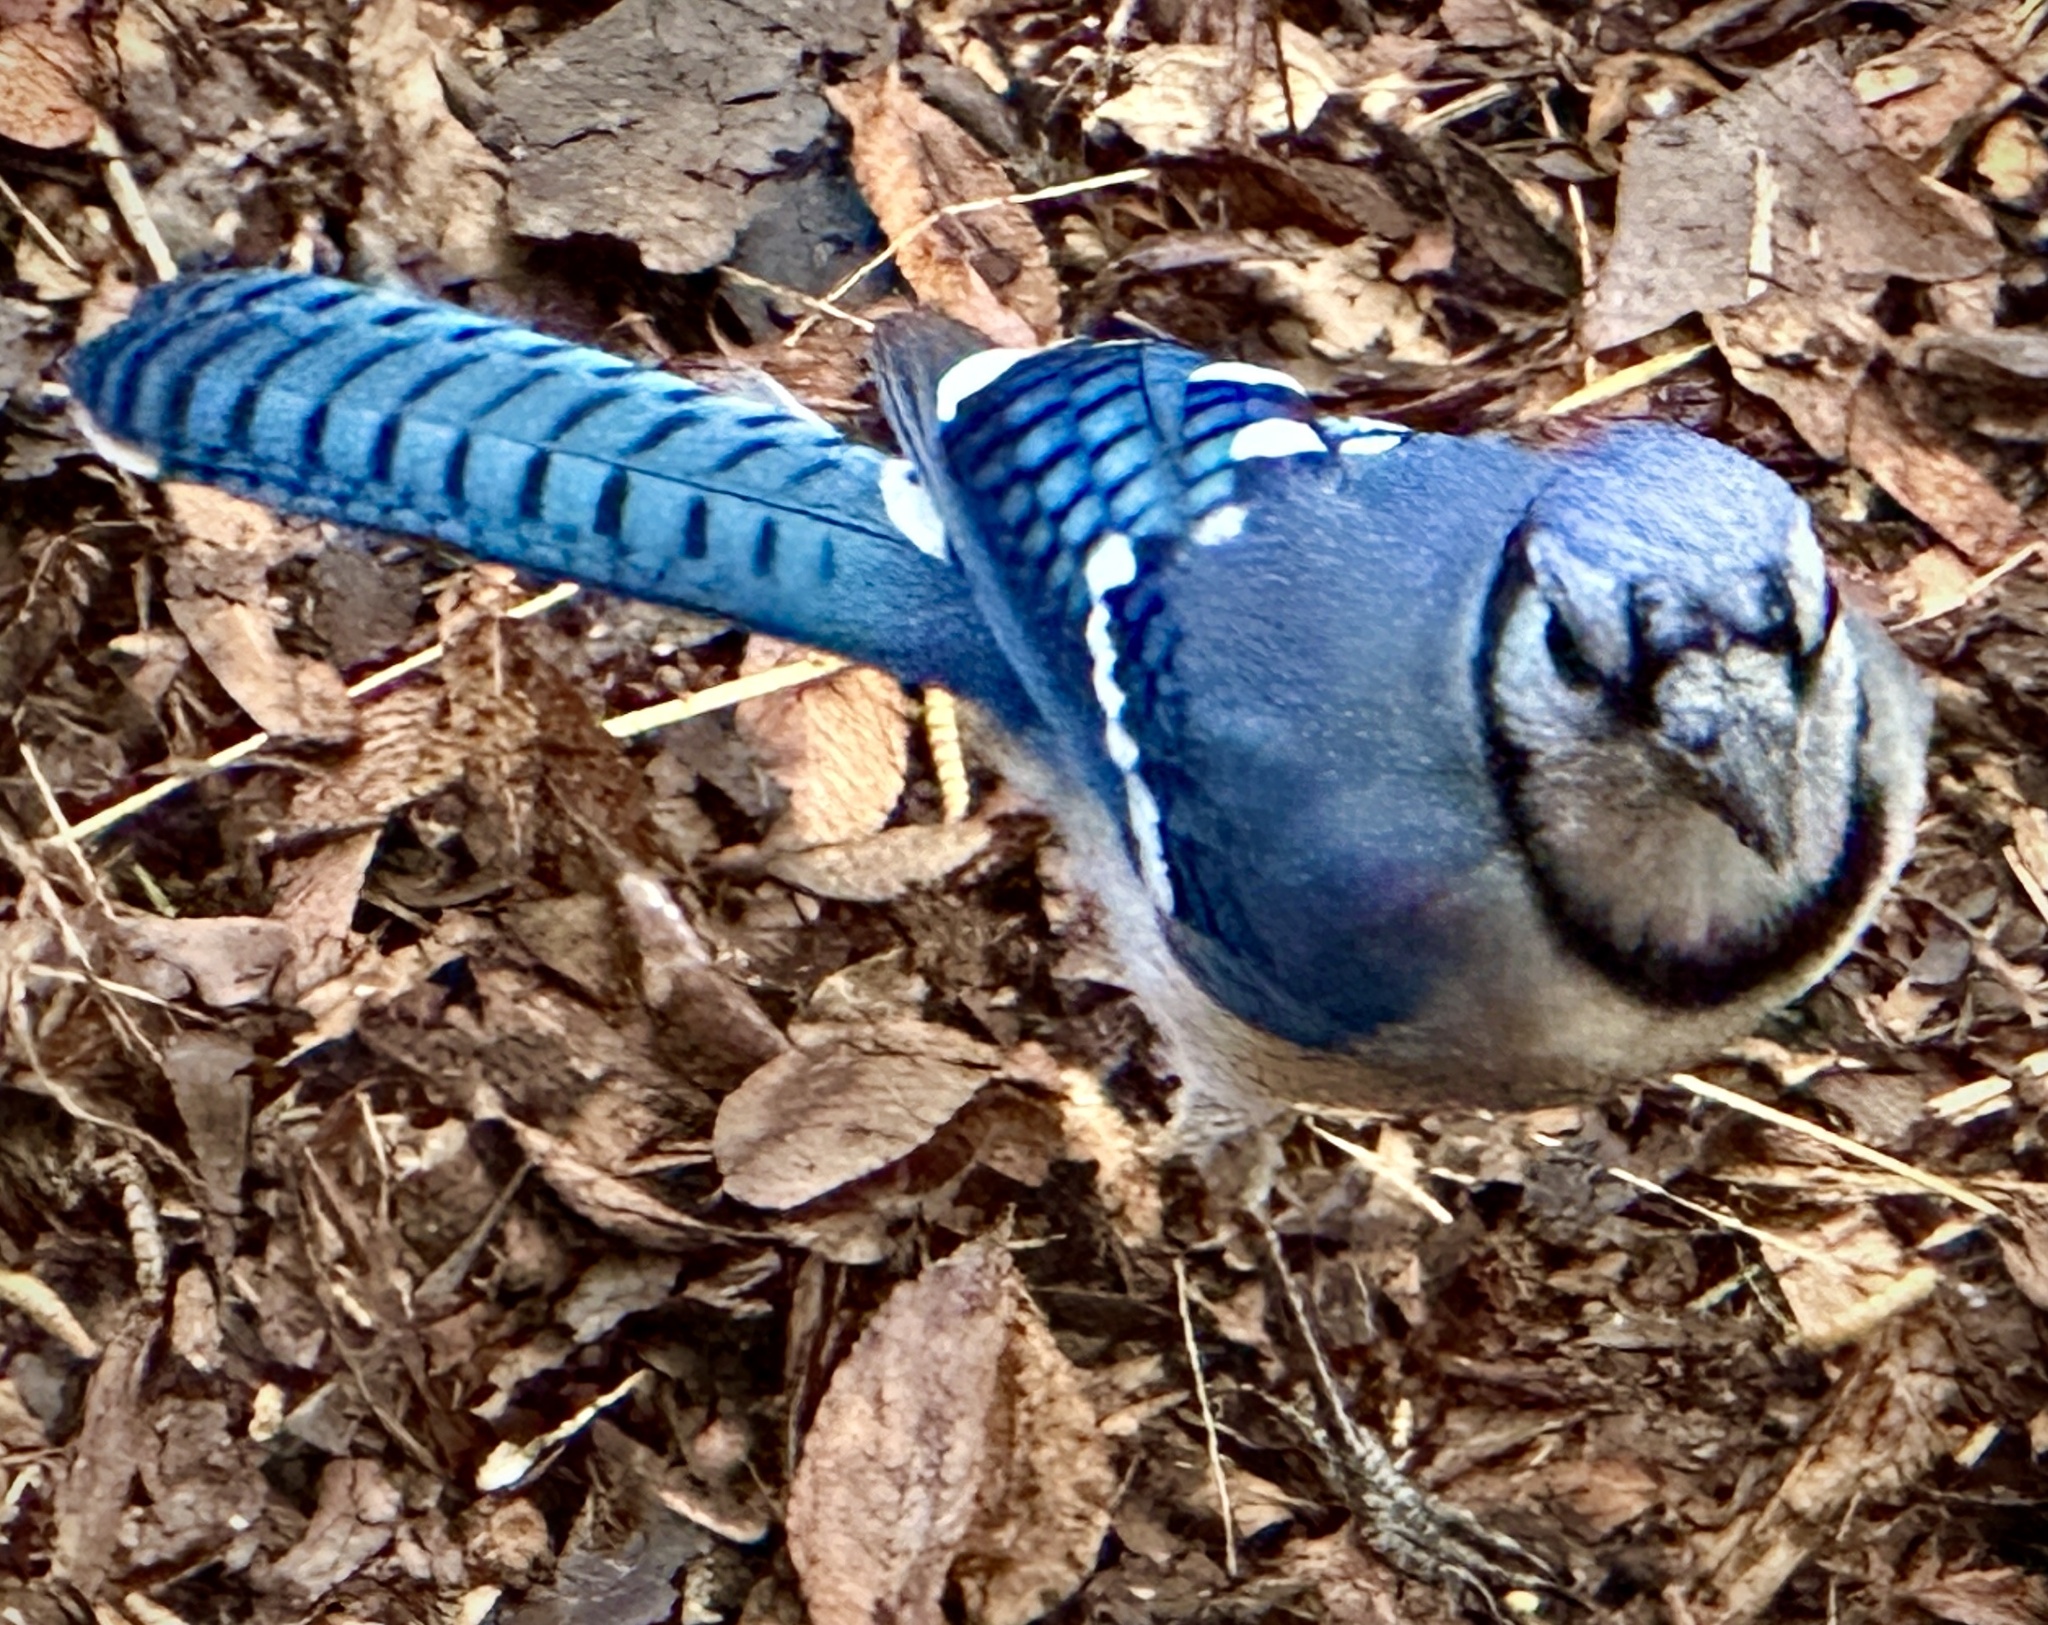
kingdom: Animalia
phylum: Chordata
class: Aves
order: Passeriformes
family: Corvidae
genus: Cyanocitta
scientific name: Cyanocitta cristata
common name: Blue jay
